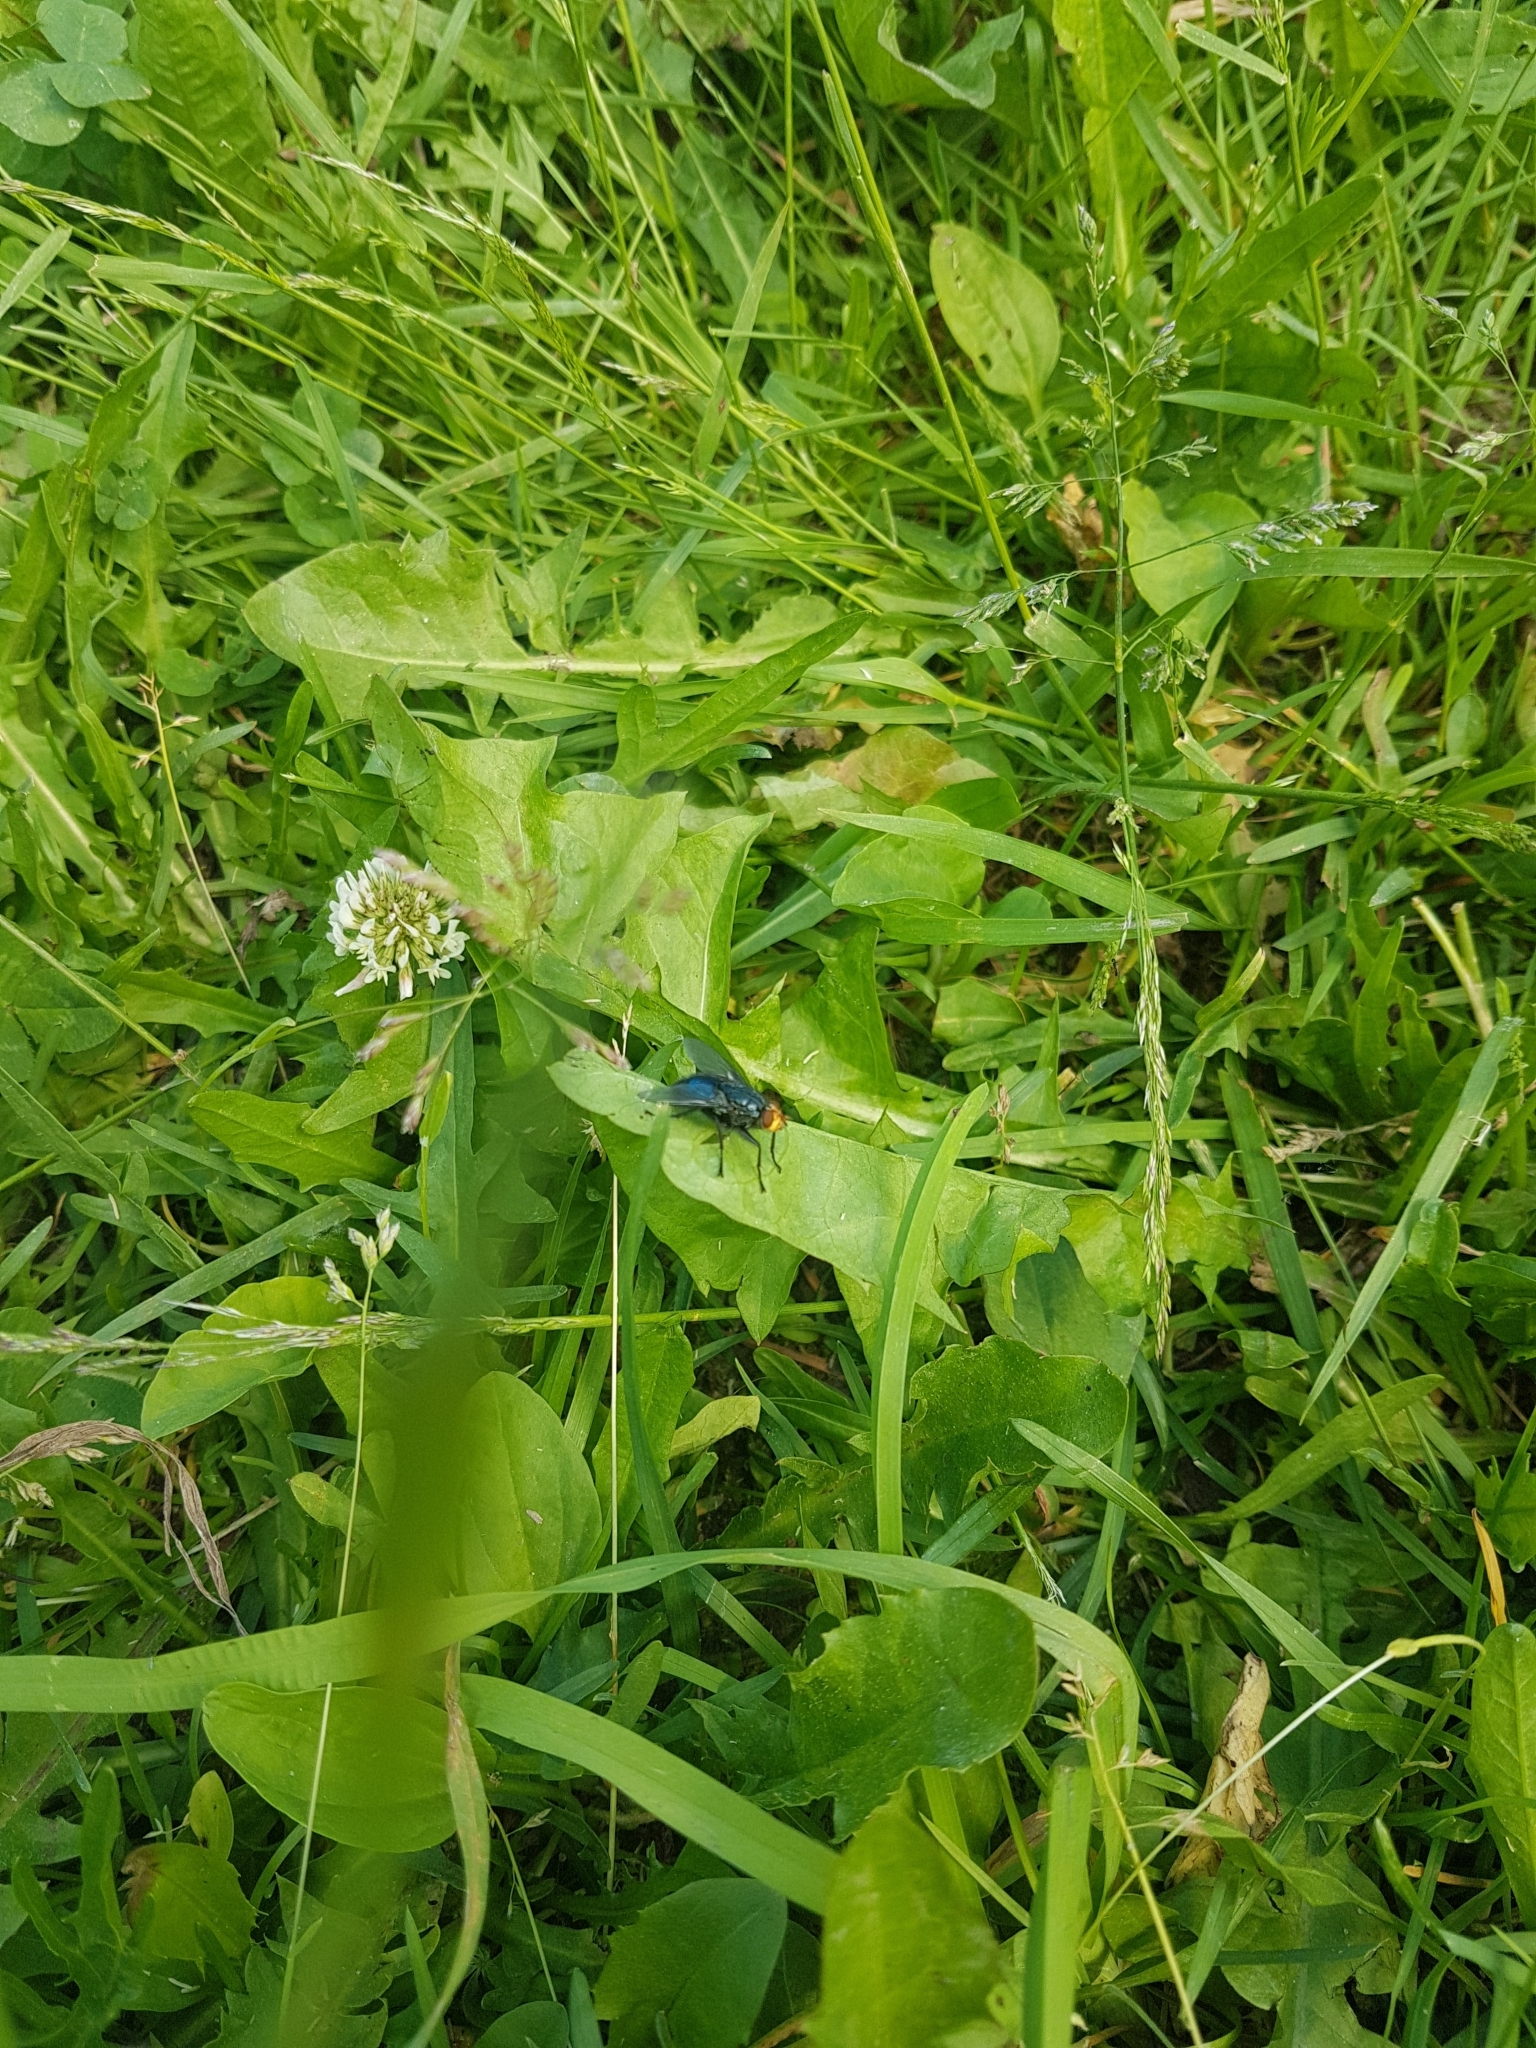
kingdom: Animalia
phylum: Arthropoda
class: Insecta
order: Diptera
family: Calliphoridae
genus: Cynomya
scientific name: Cynomya mortuorum
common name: Bluebottle blow fly
